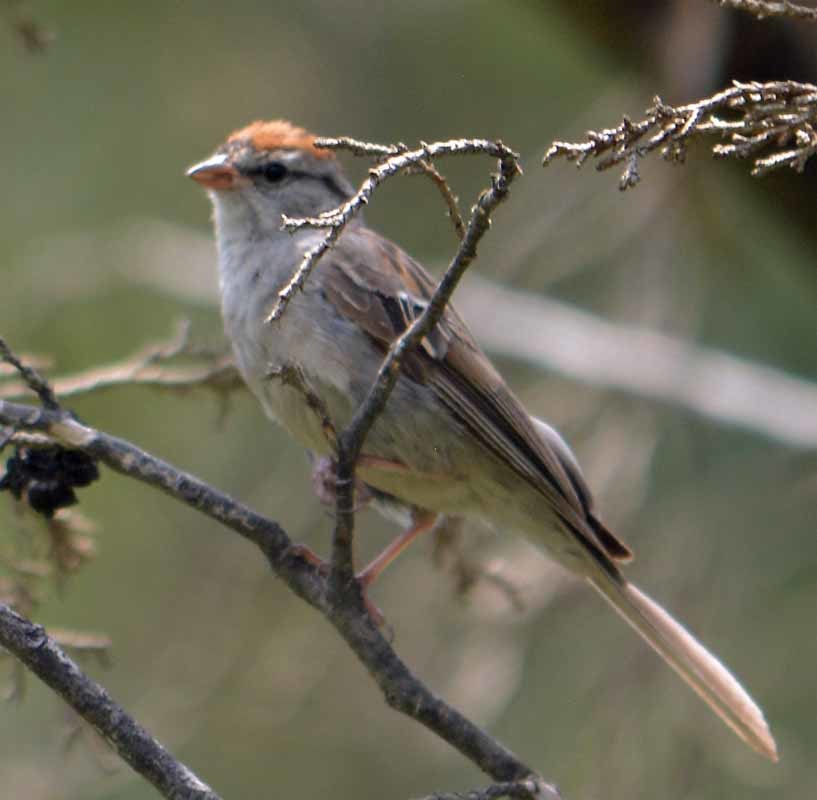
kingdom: Animalia
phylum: Chordata
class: Aves
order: Passeriformes
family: Passerellidae
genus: Spizella
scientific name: Spizella passerina
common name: Chipping sparrow
